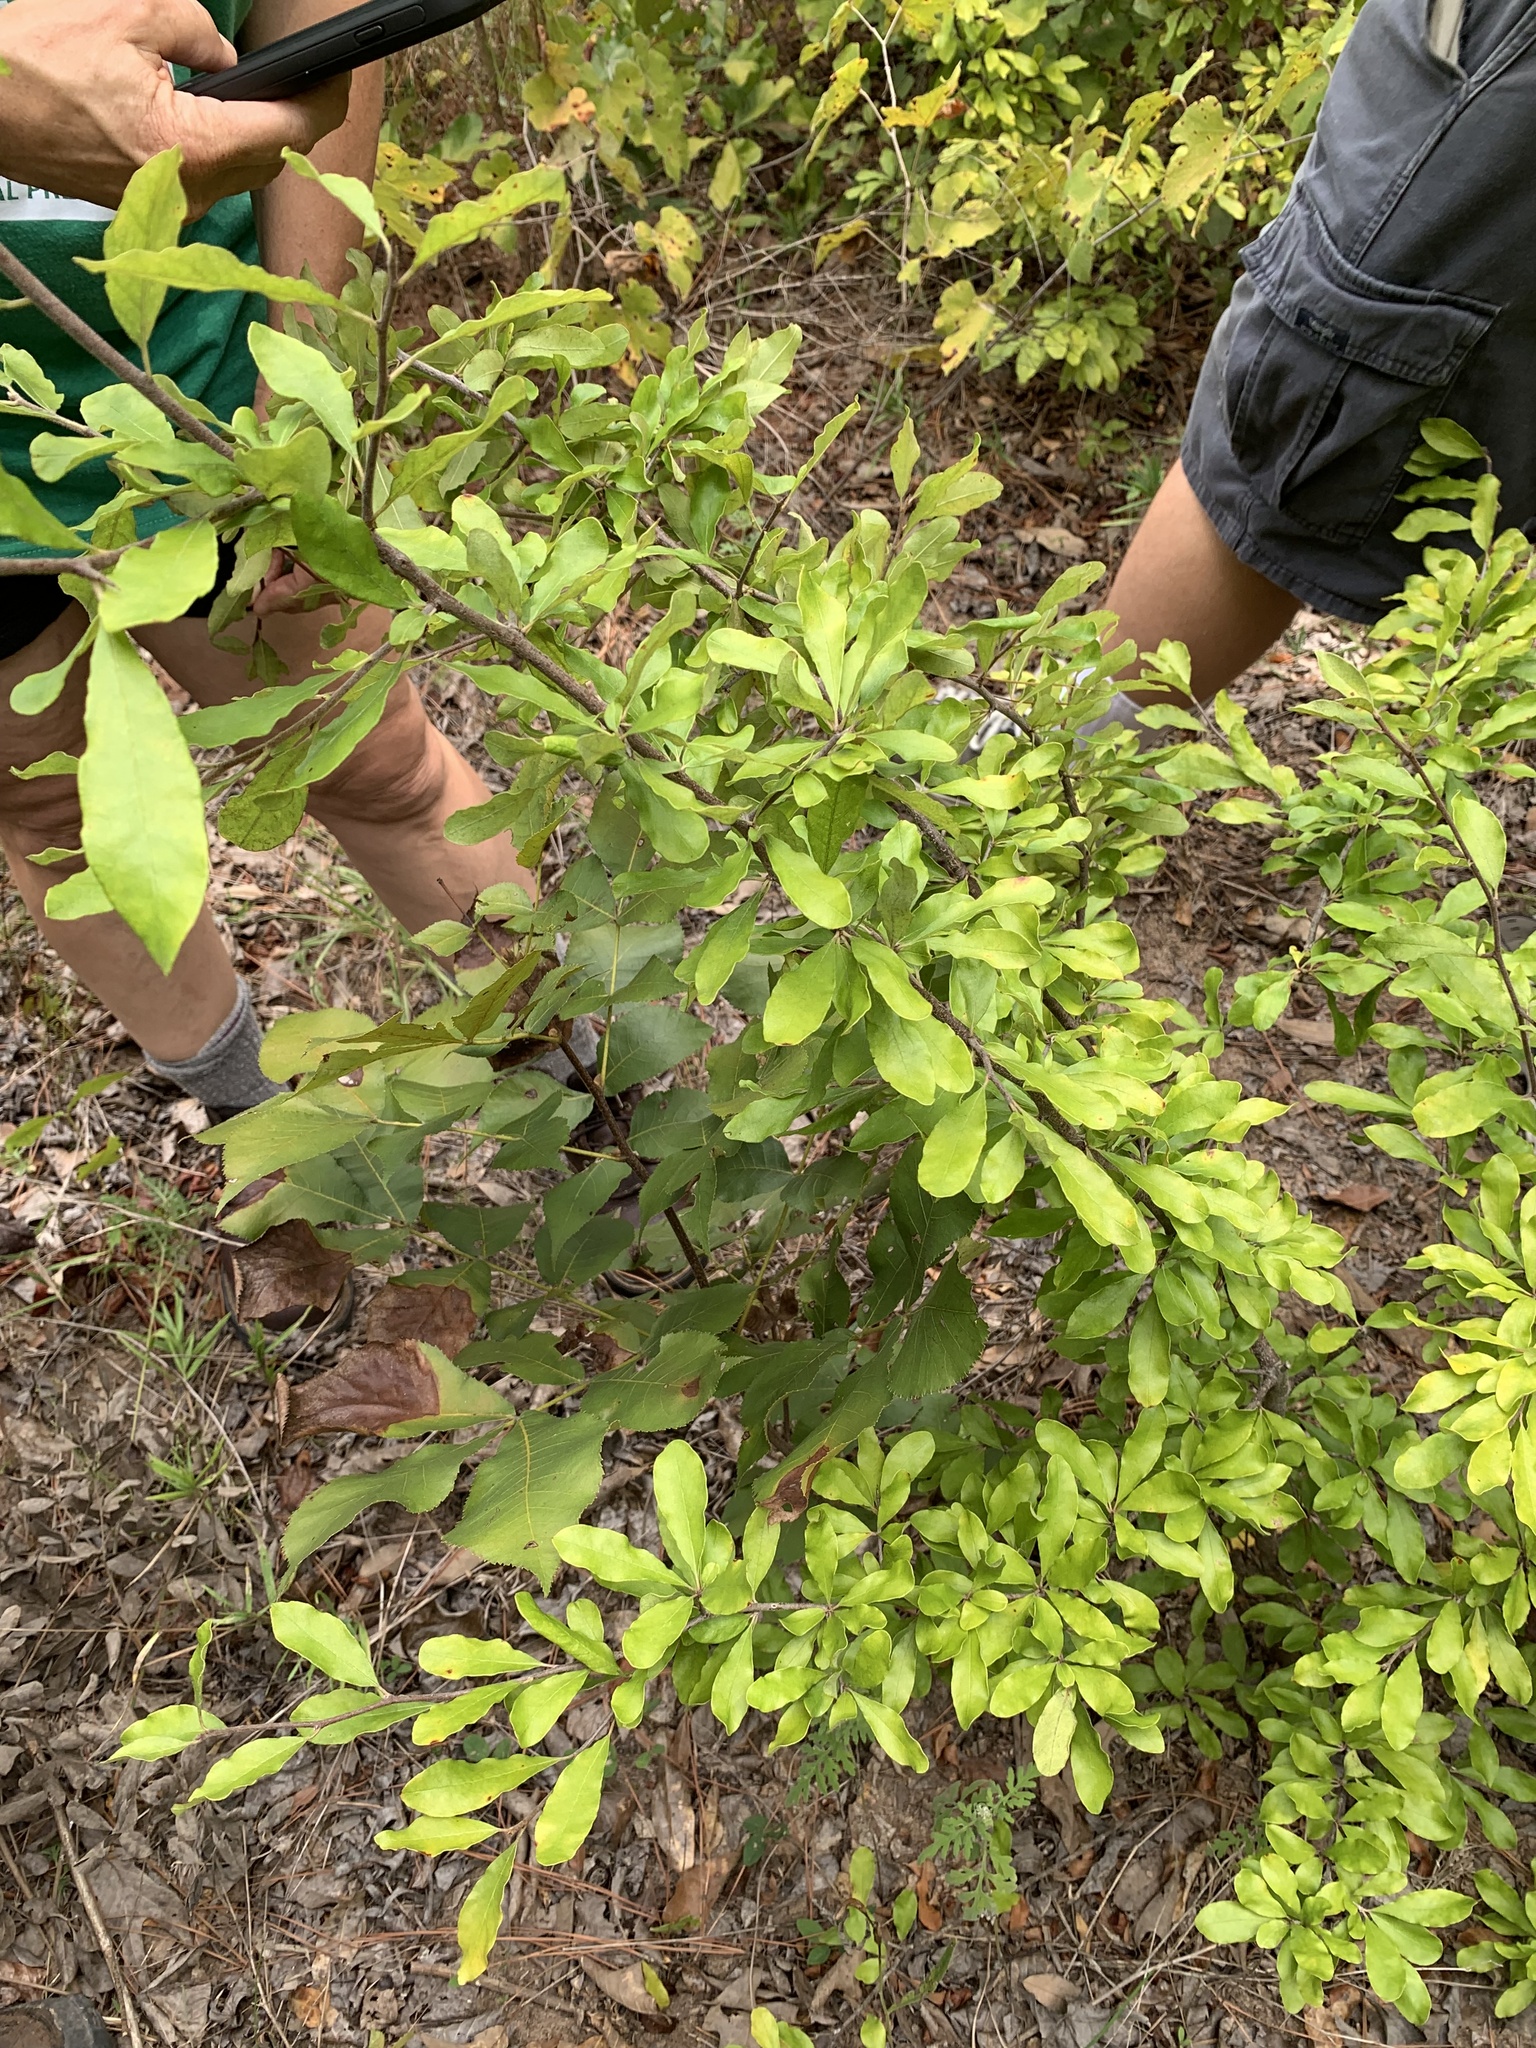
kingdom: Plantae
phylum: Tracheophyta
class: Magnoliopsida
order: Ericales
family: Sapotaceae
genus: Sideroxylon
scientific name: Sideroxylon lanuginosum
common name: Chittamwood
